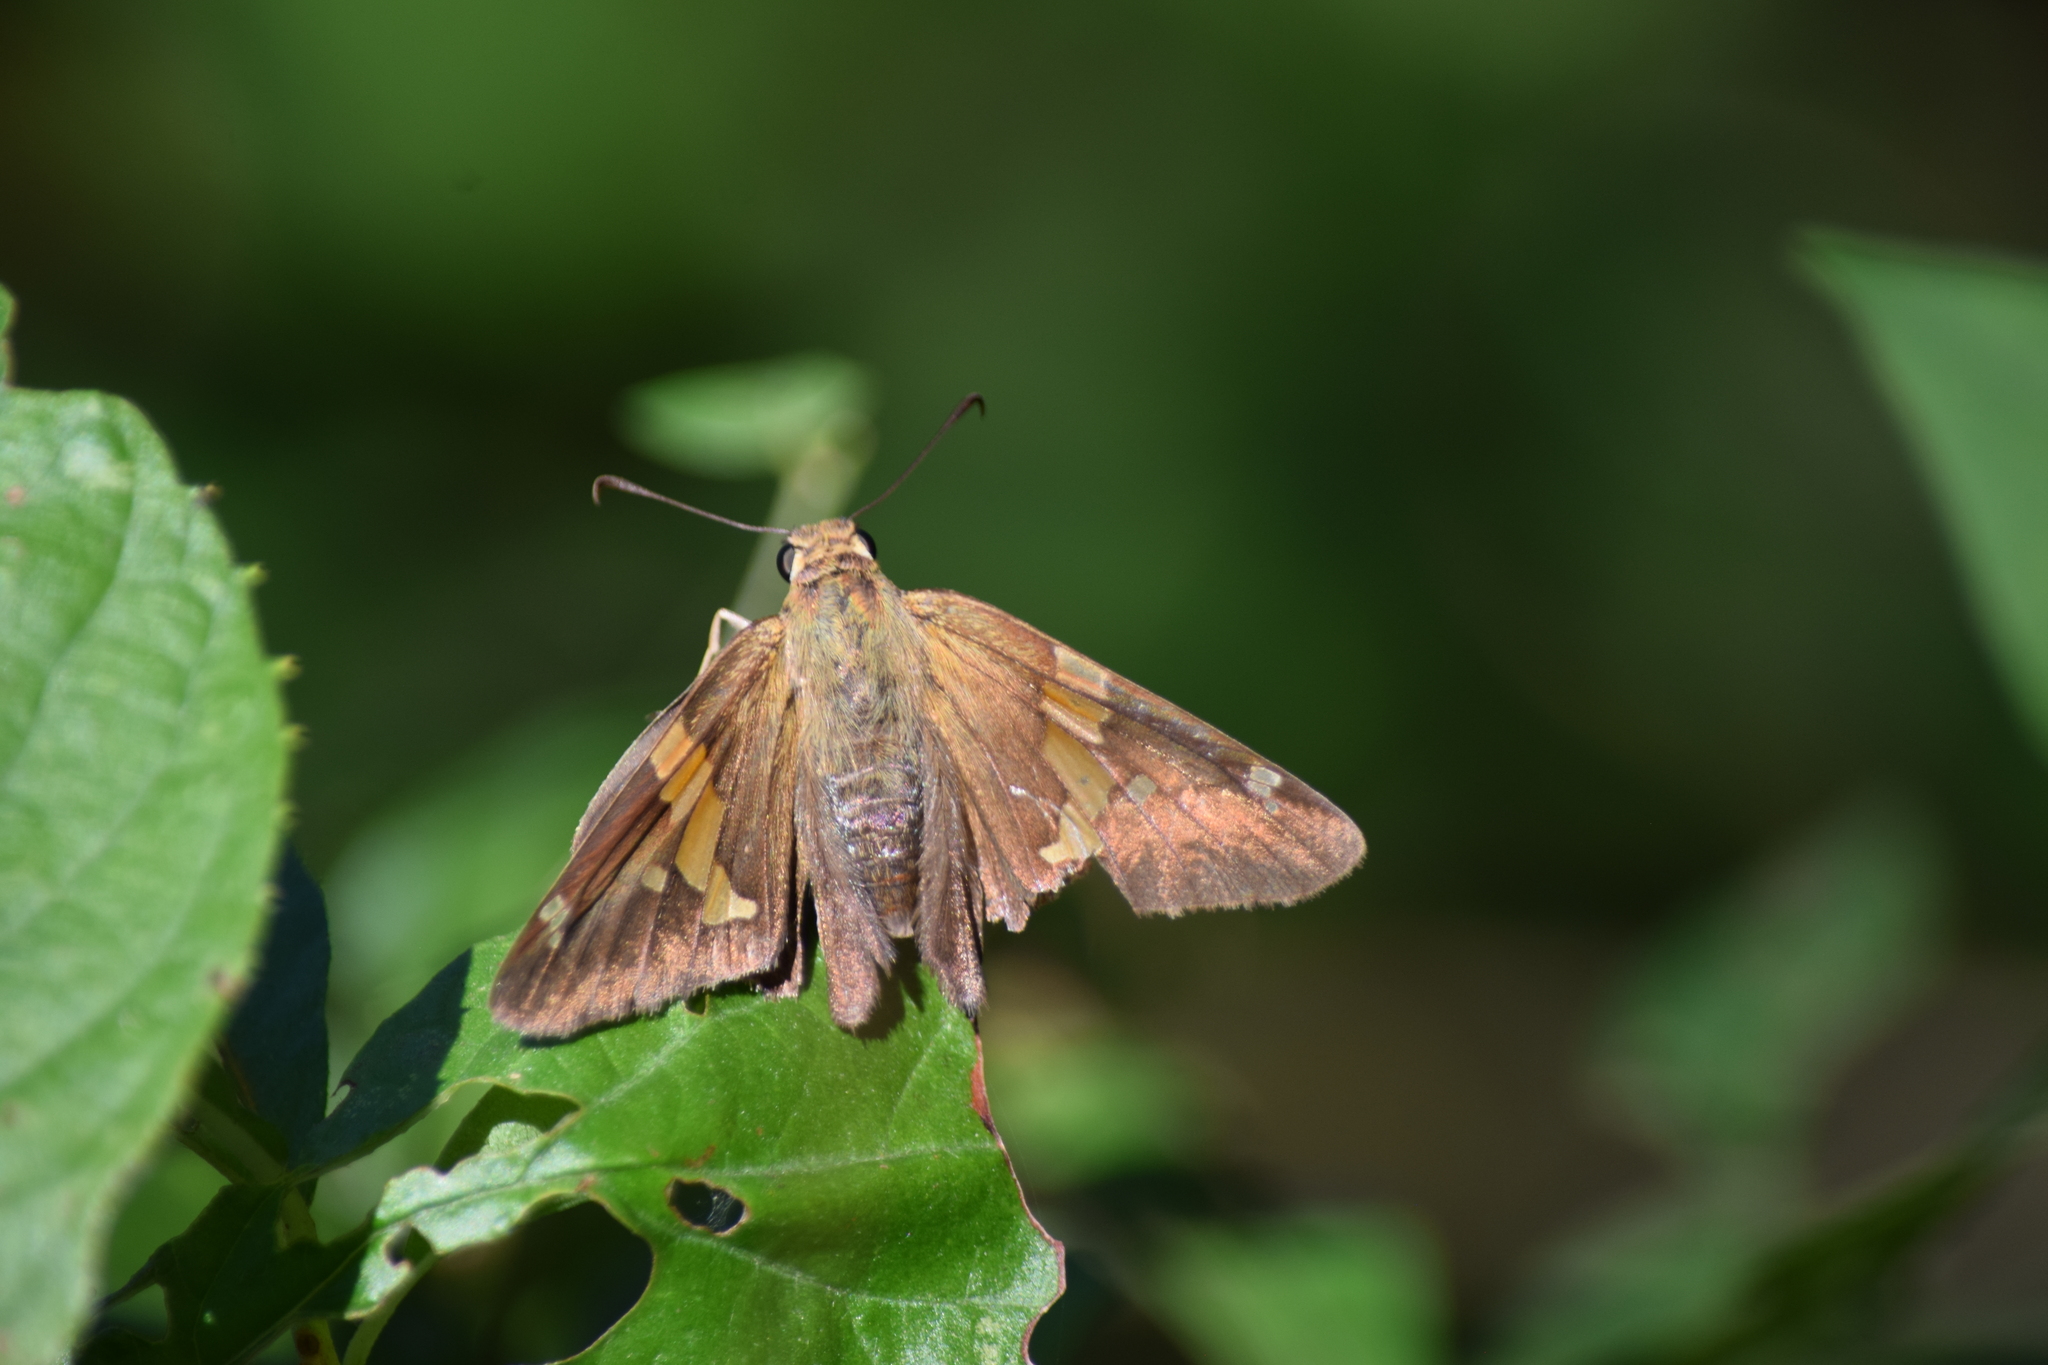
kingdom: Animalia
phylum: Arthropoda
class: Insecta
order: Lepidoptera
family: Hesperiidae
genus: Epargyreus
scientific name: Epargyreus clarus
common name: Silver-spotted skipper
